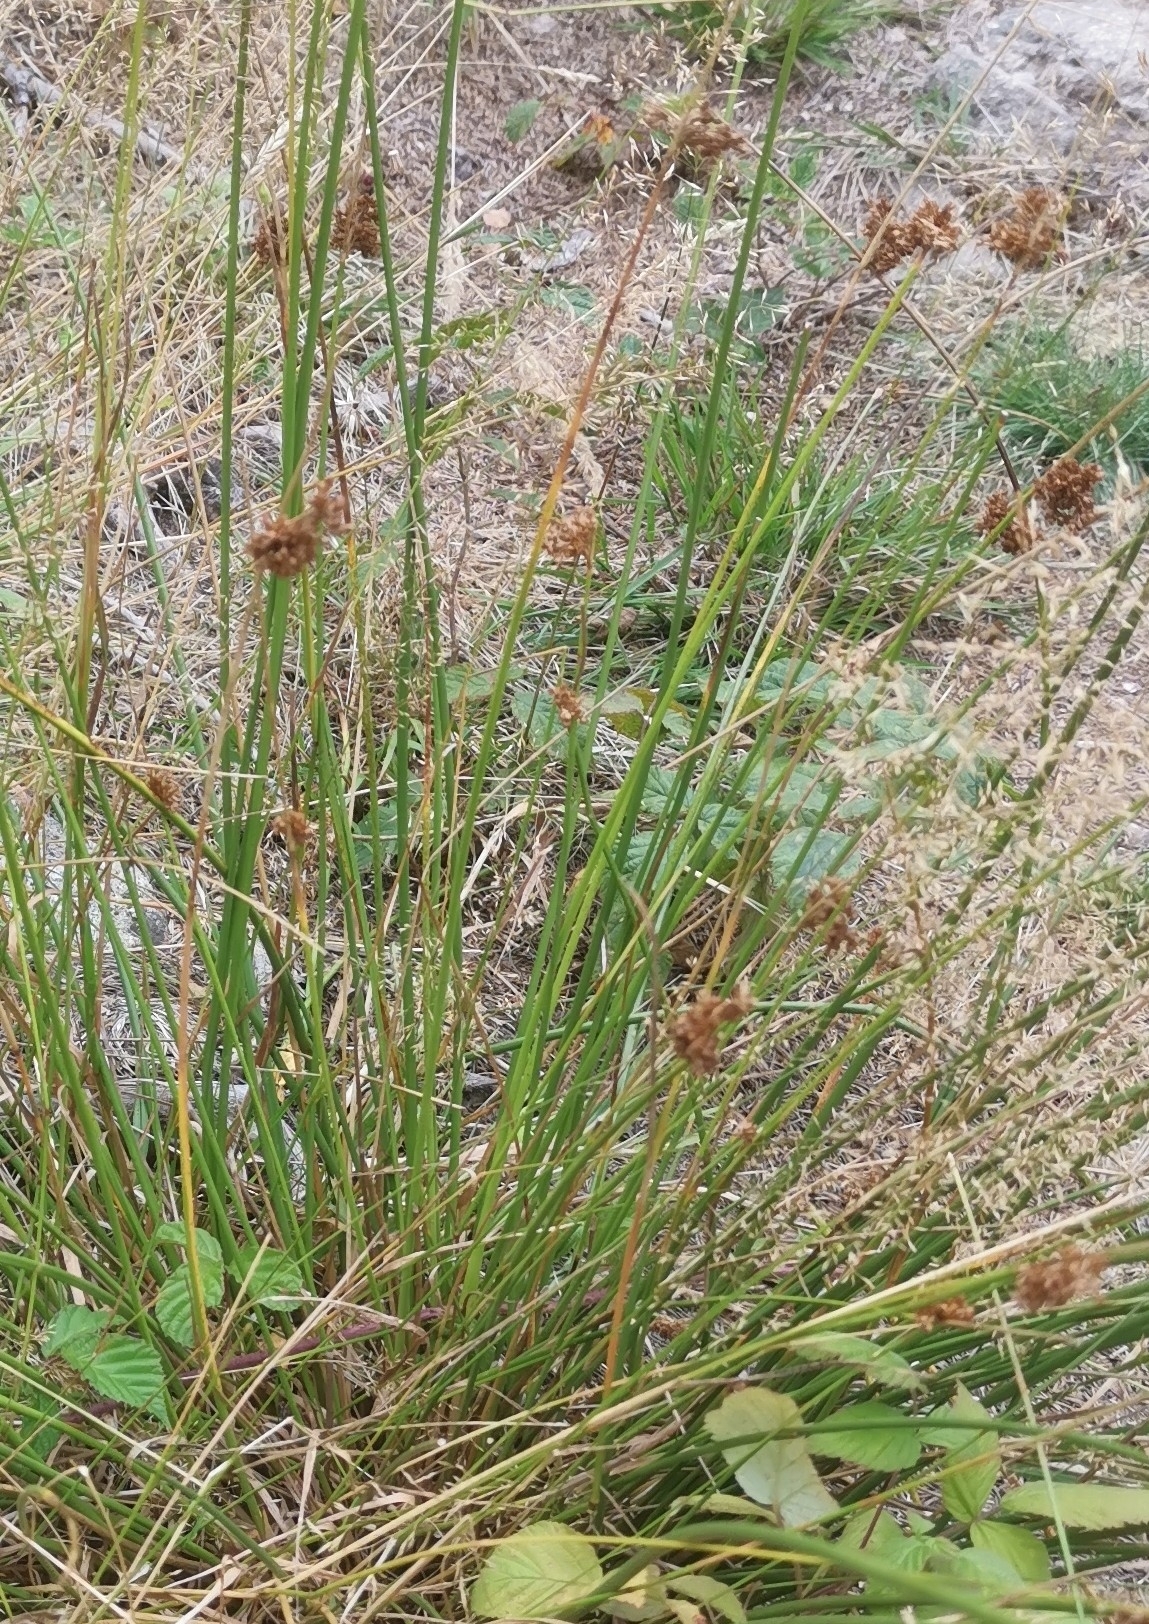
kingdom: Plantae
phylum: Tracheophyta
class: Liliopsida
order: Poales
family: Juncaceae
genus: Juncus
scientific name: Juncus effusus
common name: Soft rush
